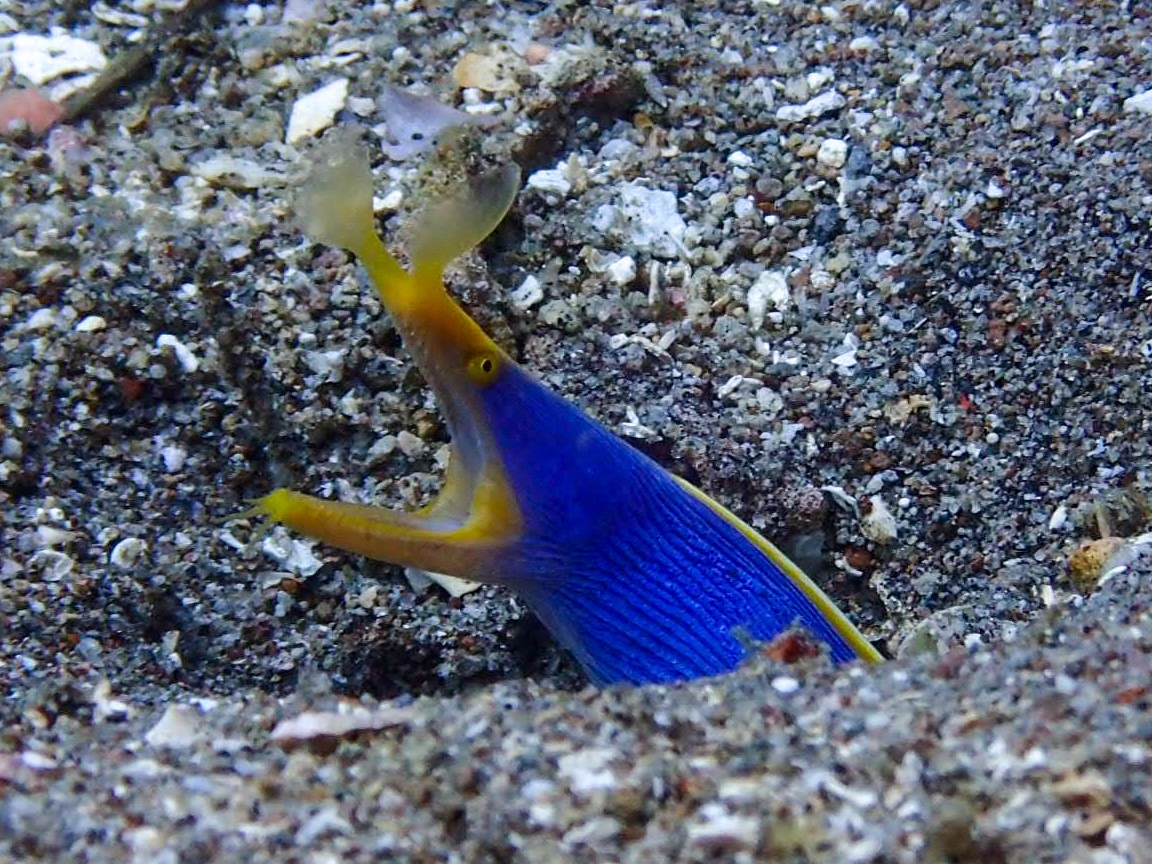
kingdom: Animalia
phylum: Chordata
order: Anguilliformes
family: Muraenidae
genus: Rhinomuraena
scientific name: Rhinomuraena quaesita
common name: Ribbon eel
